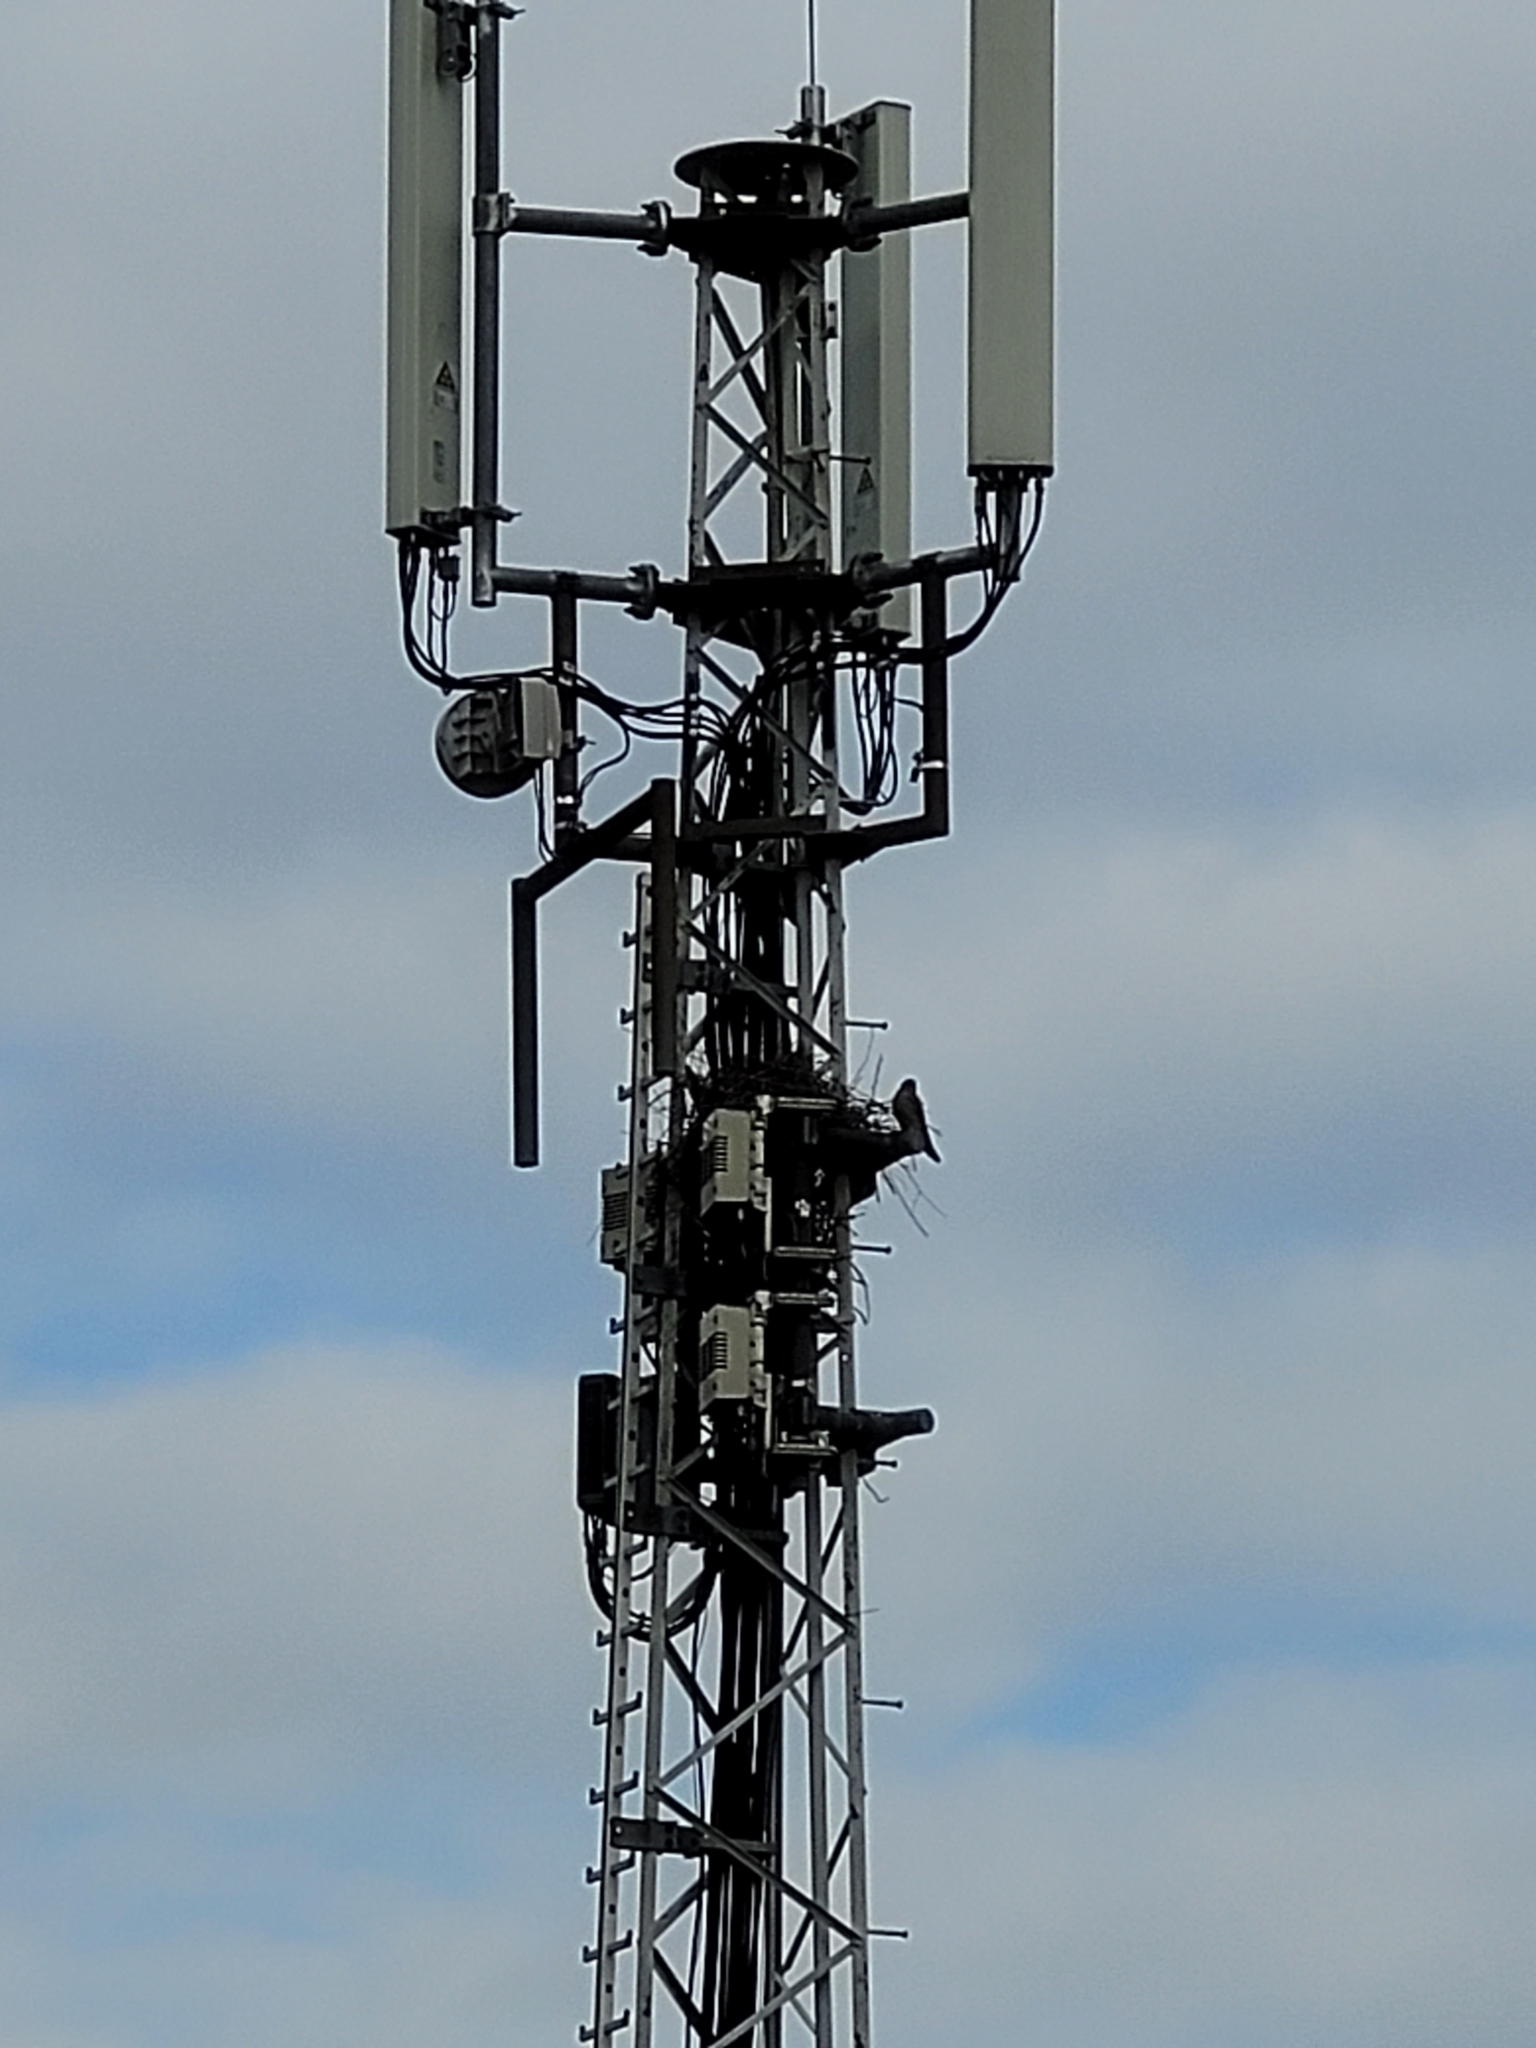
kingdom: Animalia
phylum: Chordata
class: Aves
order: Falconiformes
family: Falconidae
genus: Falco
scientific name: Falco tinnunculus
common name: Common kestrel
